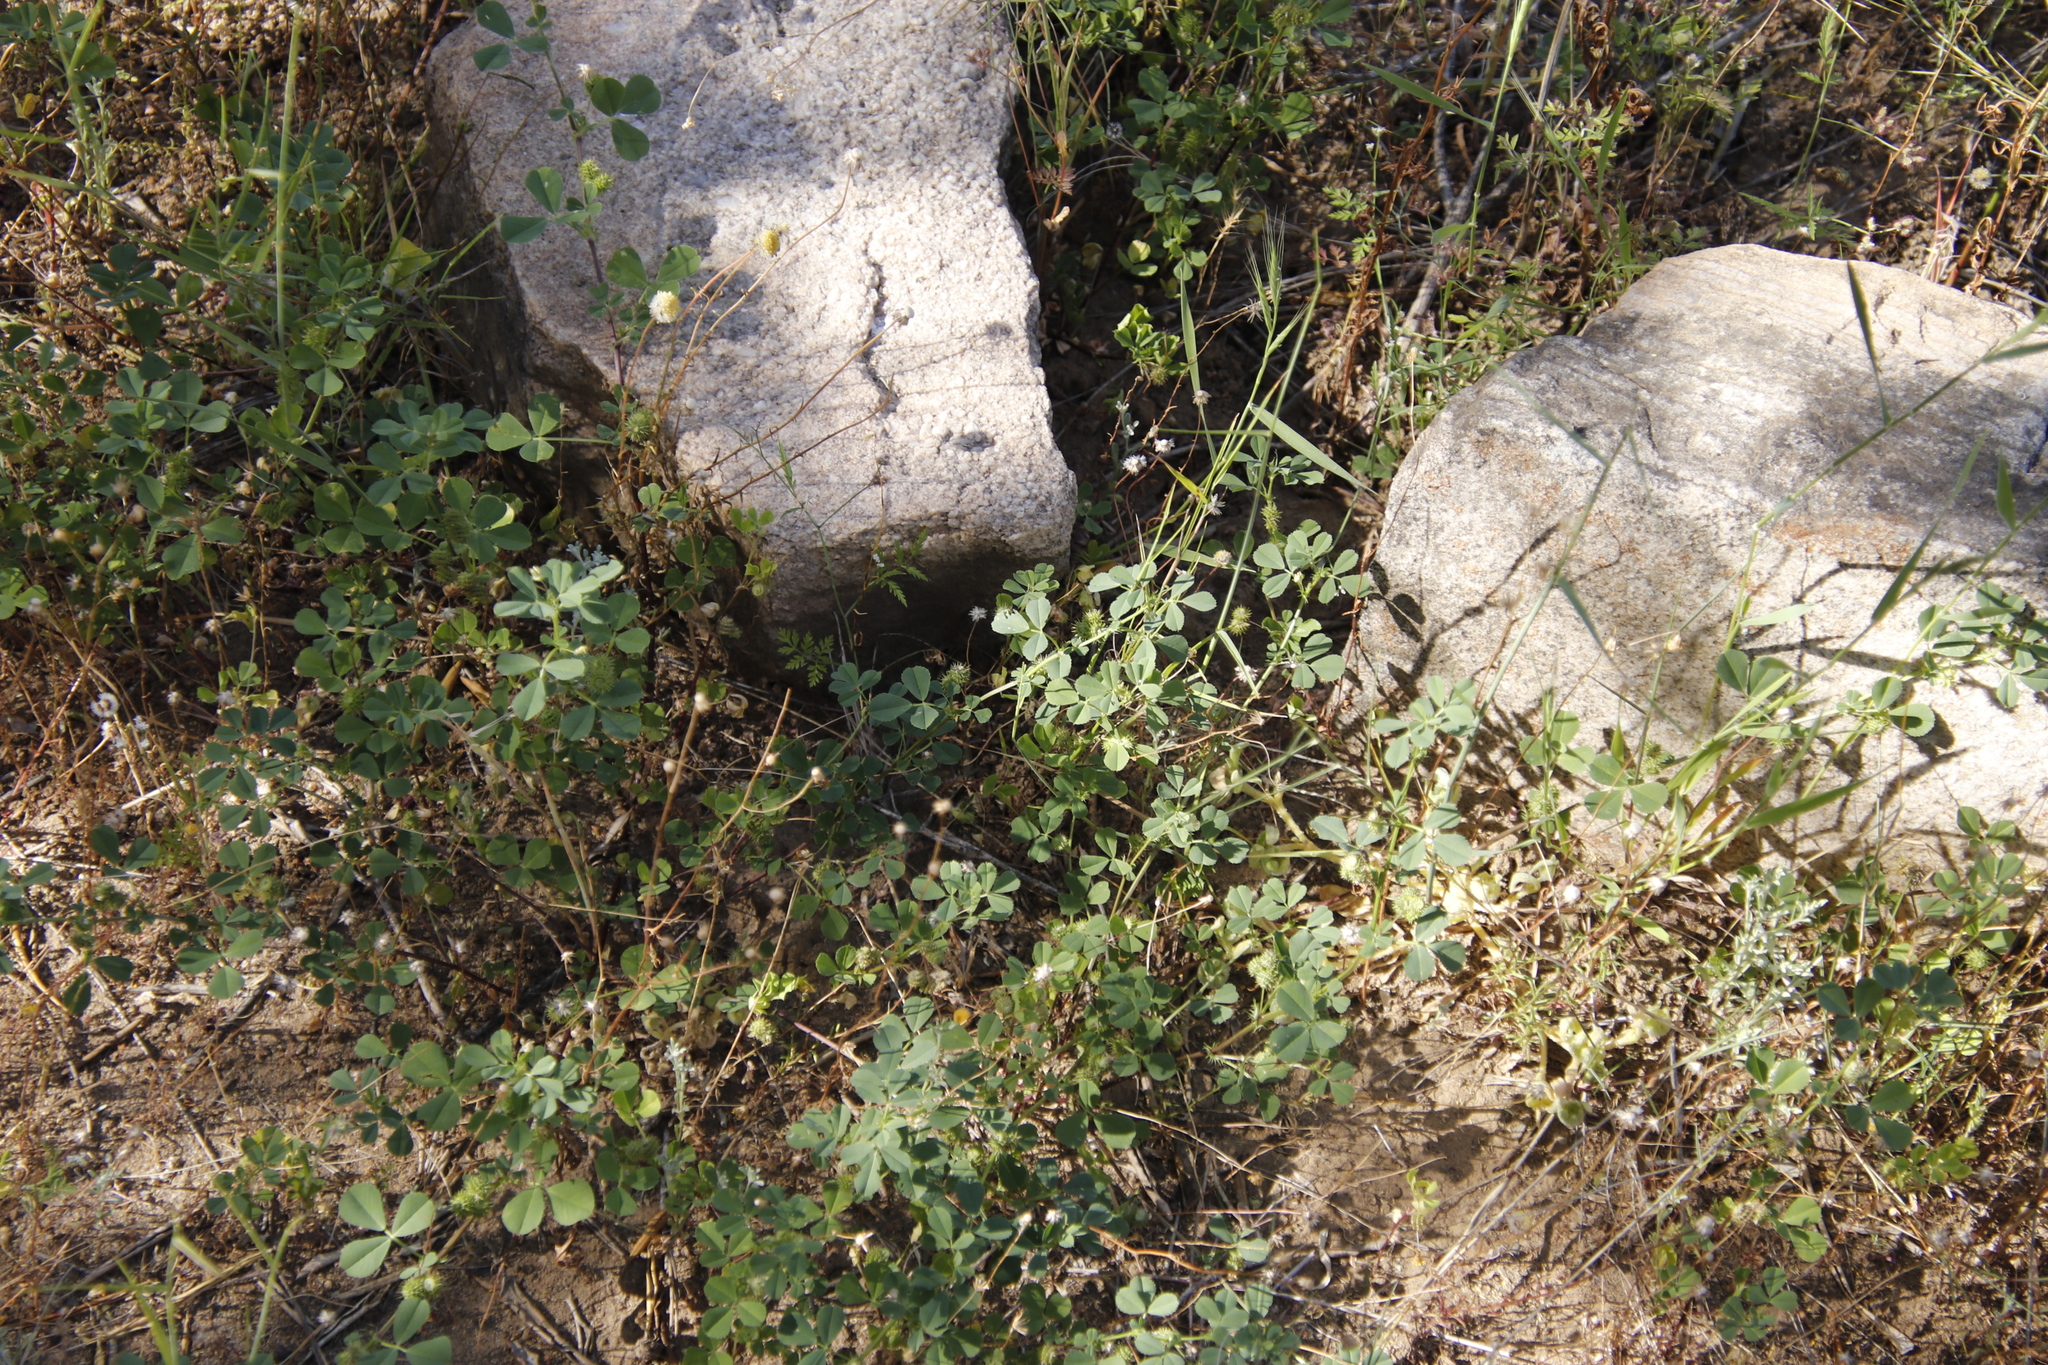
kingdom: Plantae
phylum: Tracheophyta
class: Magnoliopsida
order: Fabales
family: Fabaceae
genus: Medicago
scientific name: Medicago polymorpha
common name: Burclover
